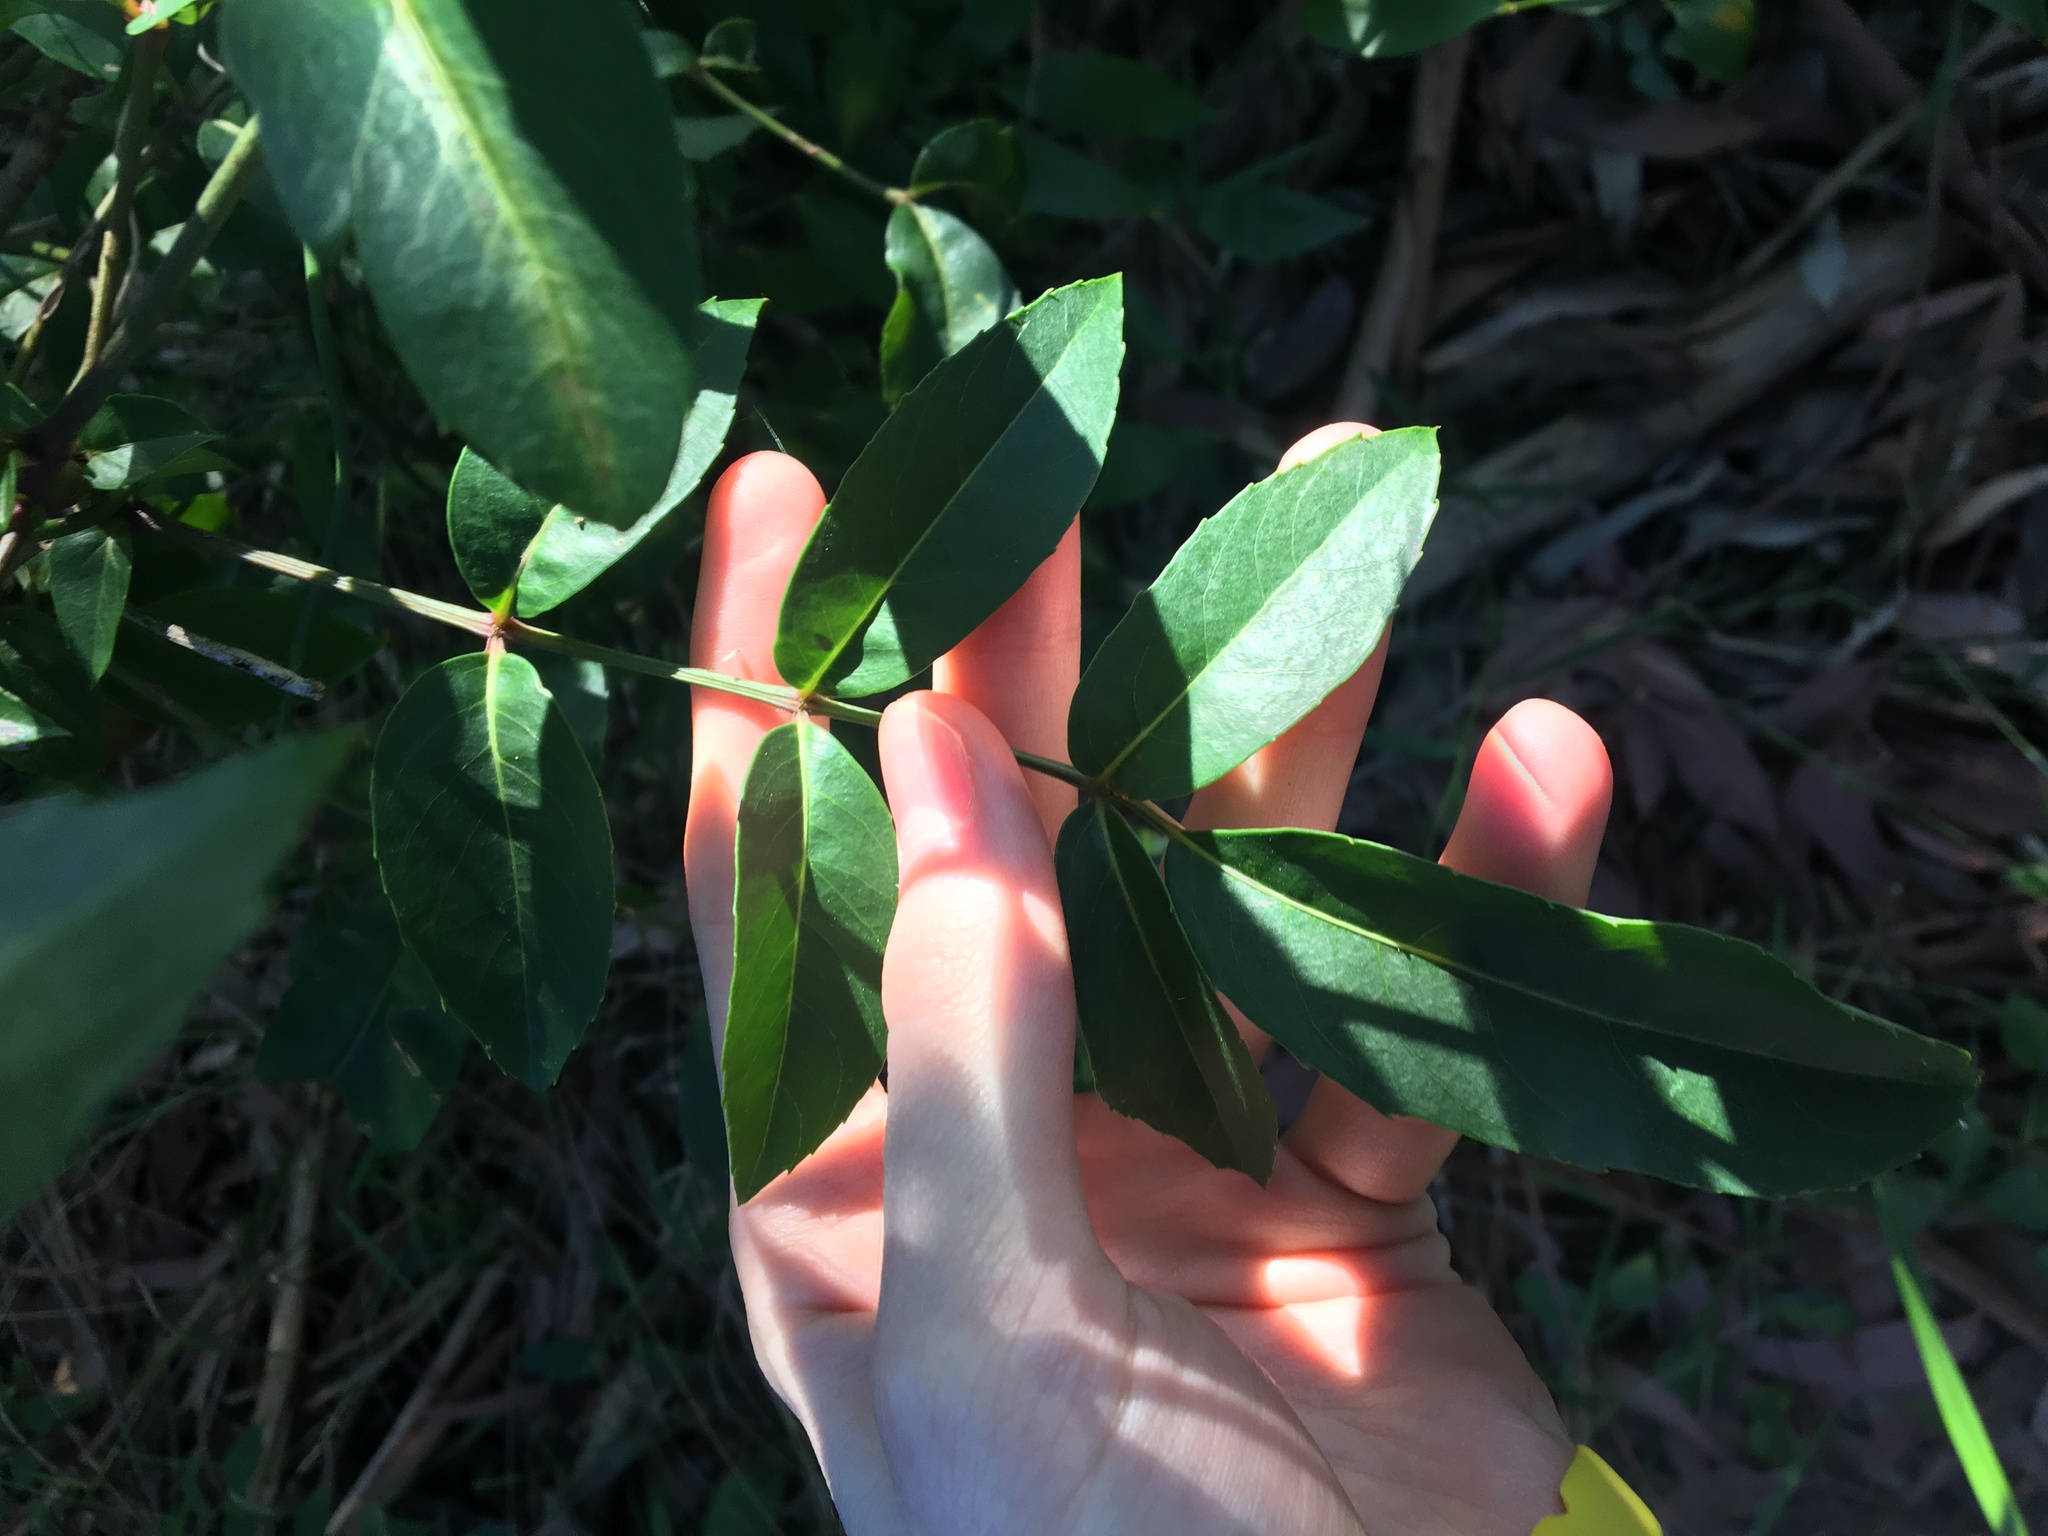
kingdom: Plantae
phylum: Tracheophyta
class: Magnoliopsida
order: Apiales
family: Araliaceae
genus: Polyscias
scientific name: Polyscias sambucifolia
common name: Elderberry-ash
